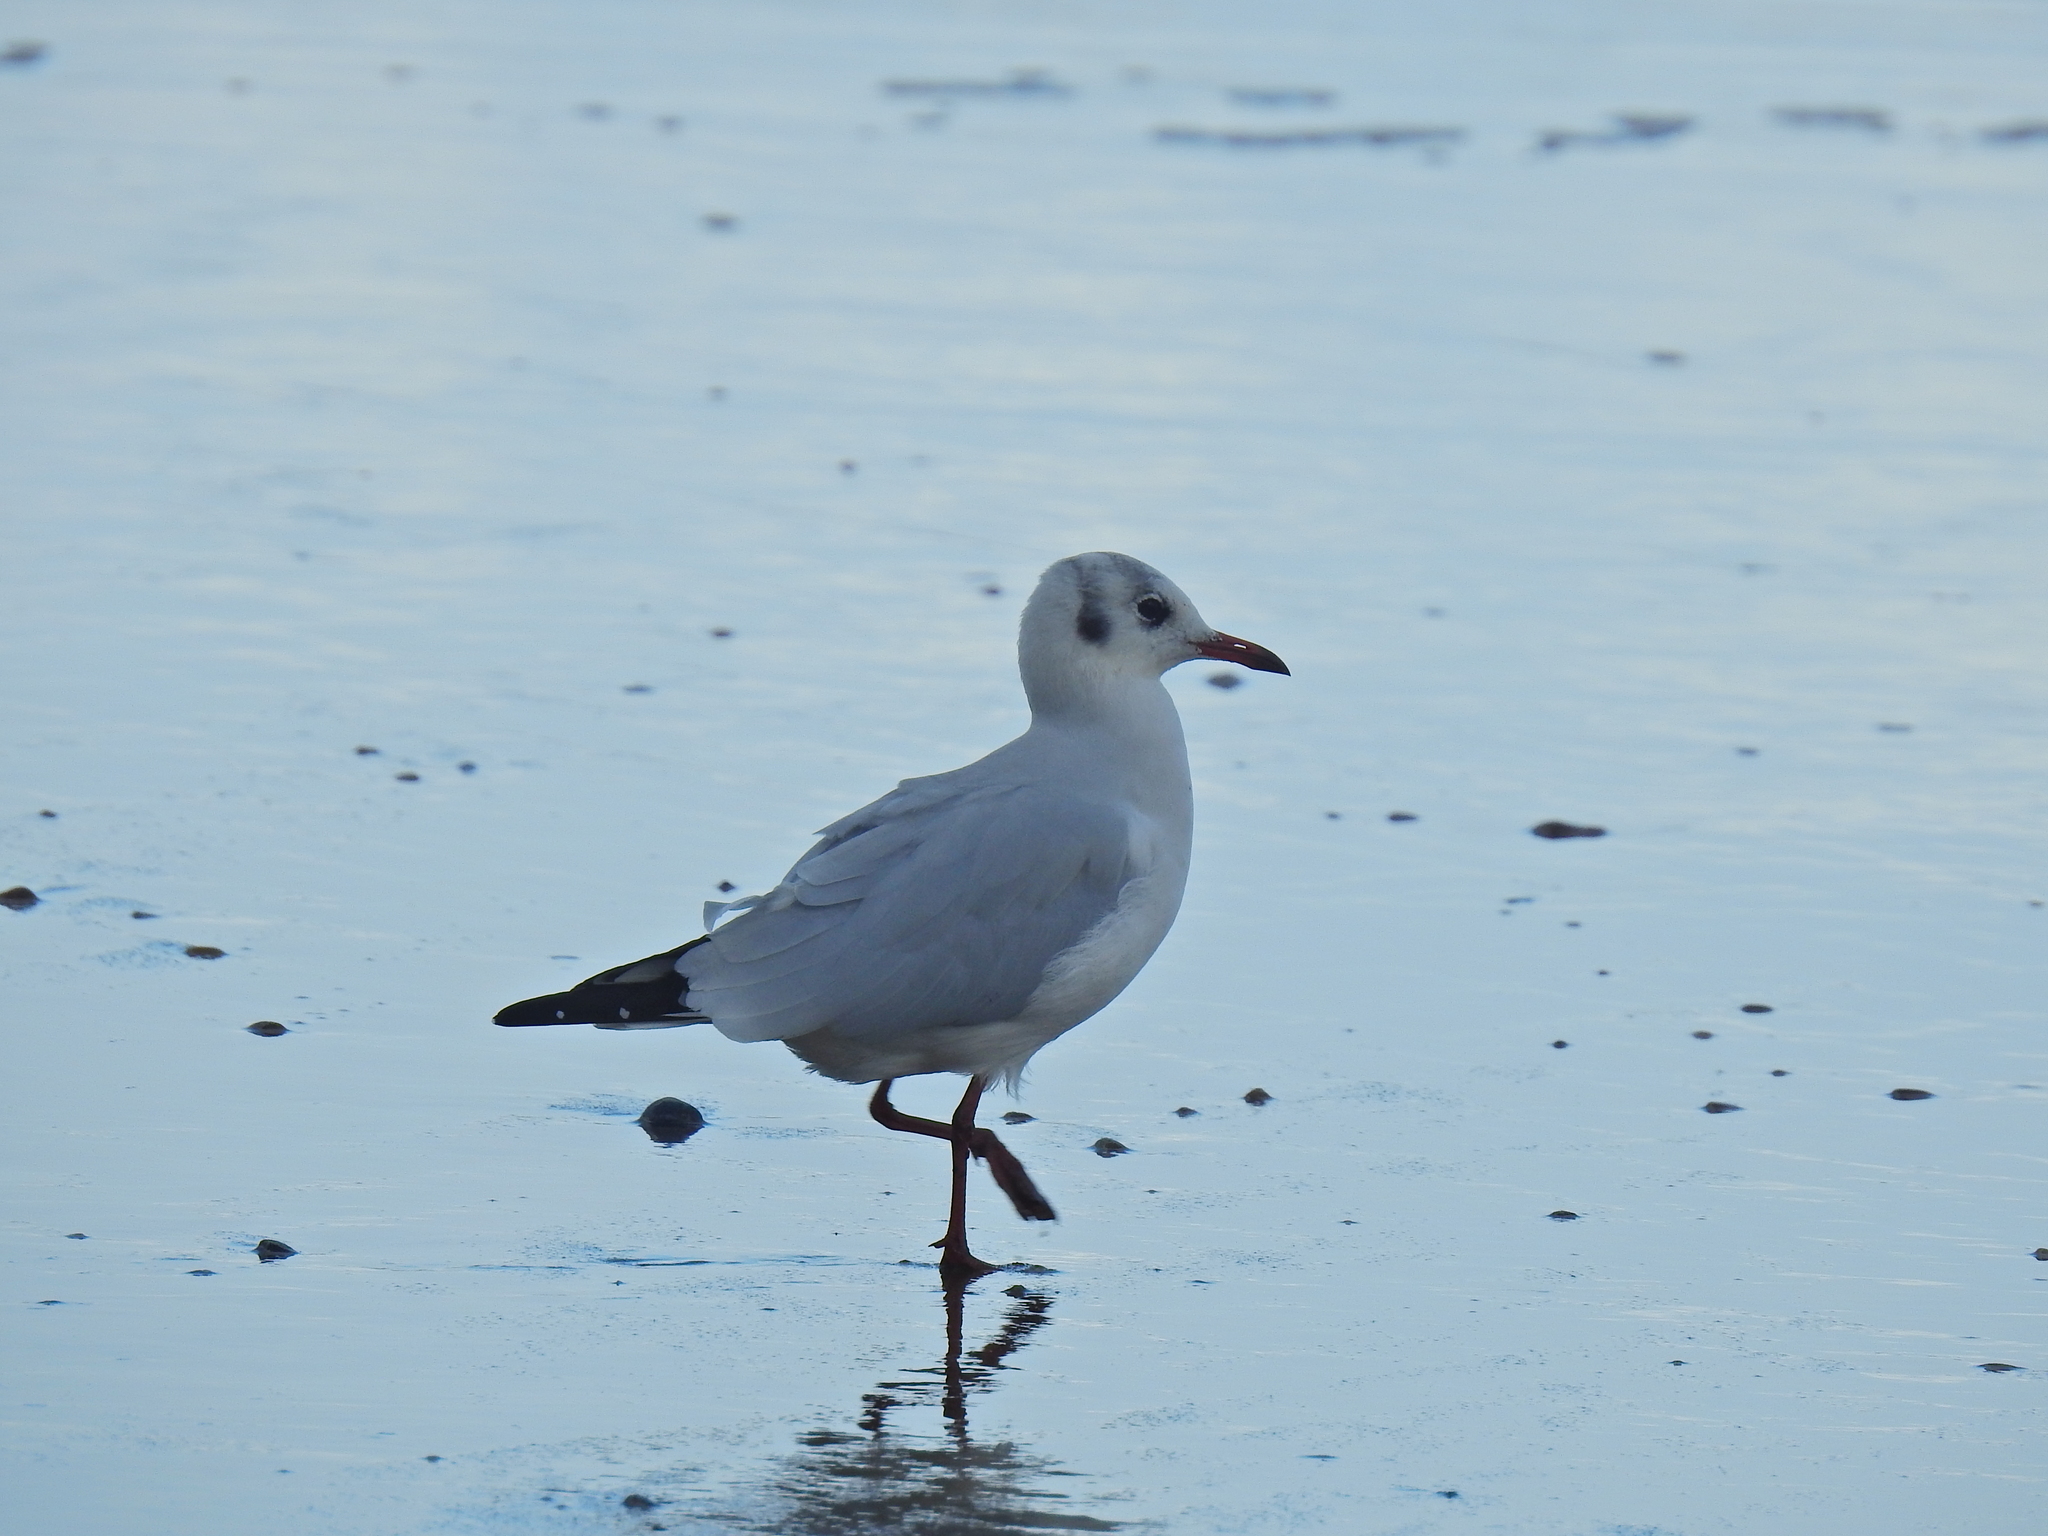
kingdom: Animalia
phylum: Chordata
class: Aves
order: Charadriiformes
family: Laridae
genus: Chroicocephalus
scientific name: Chroicocephalus ridibundus
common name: Black-headed gull
